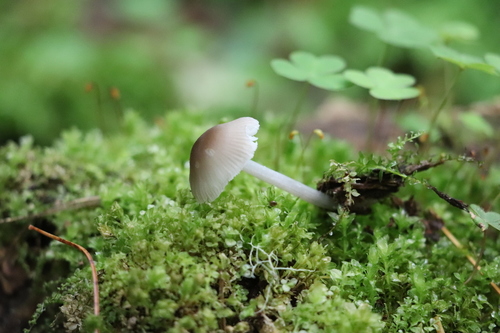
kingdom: Fungi
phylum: Basidiomycota
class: Agaricomycetes
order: Agaricales
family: Mycenaceae
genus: Mycena
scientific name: Mycena niveipes
